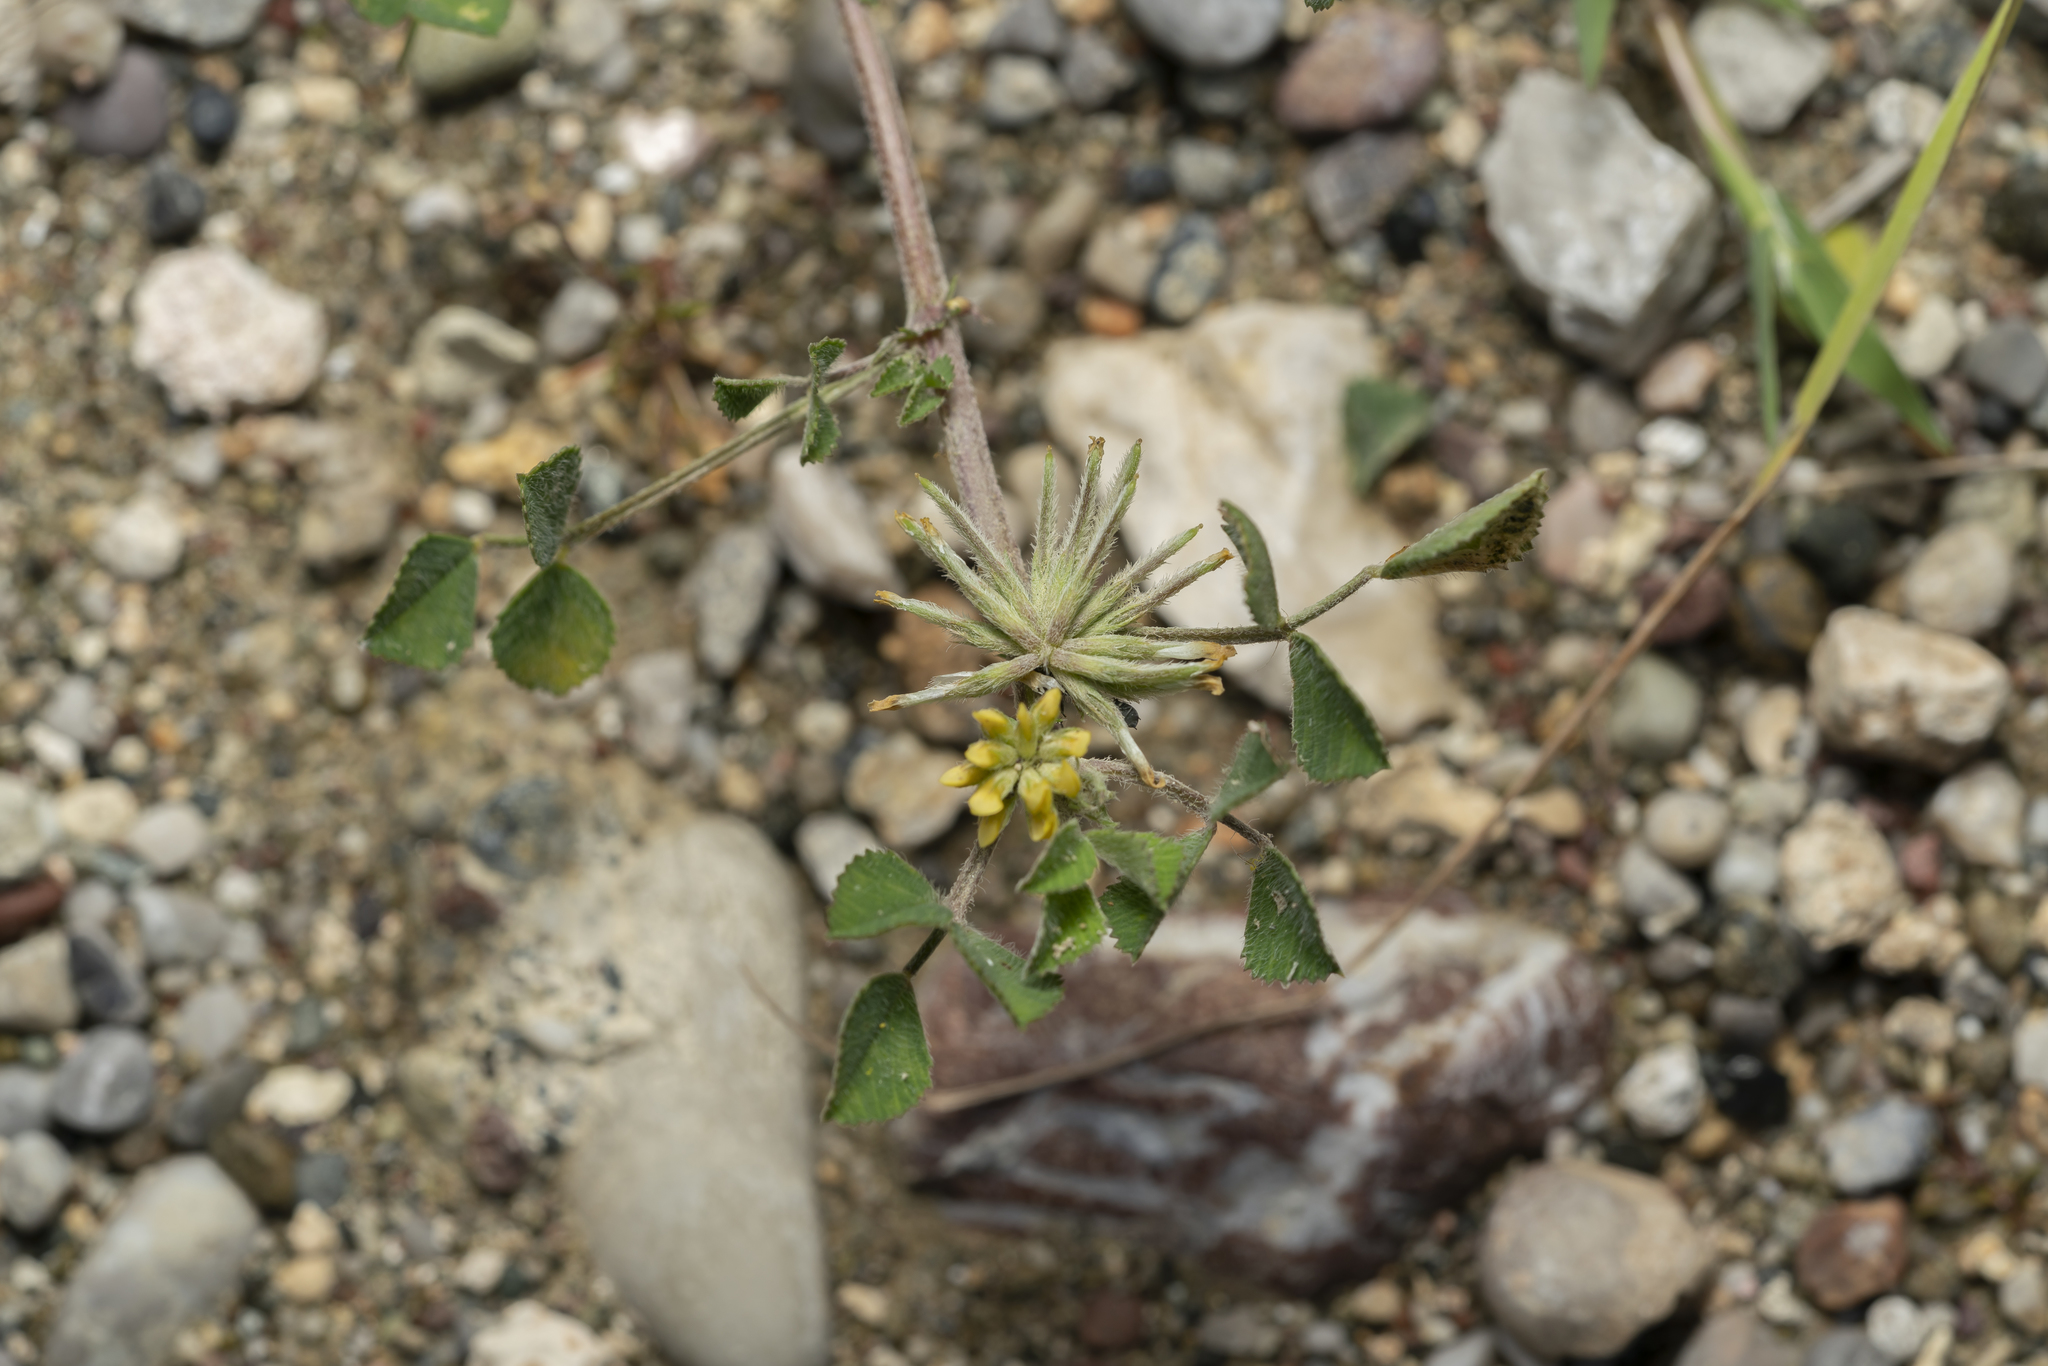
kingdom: Plantae
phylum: Tracheophyta
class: Magnoliopsida
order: Fabales
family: Fabaceae
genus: Medicago
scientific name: Medicago monspeliaca
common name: Hairy medick
